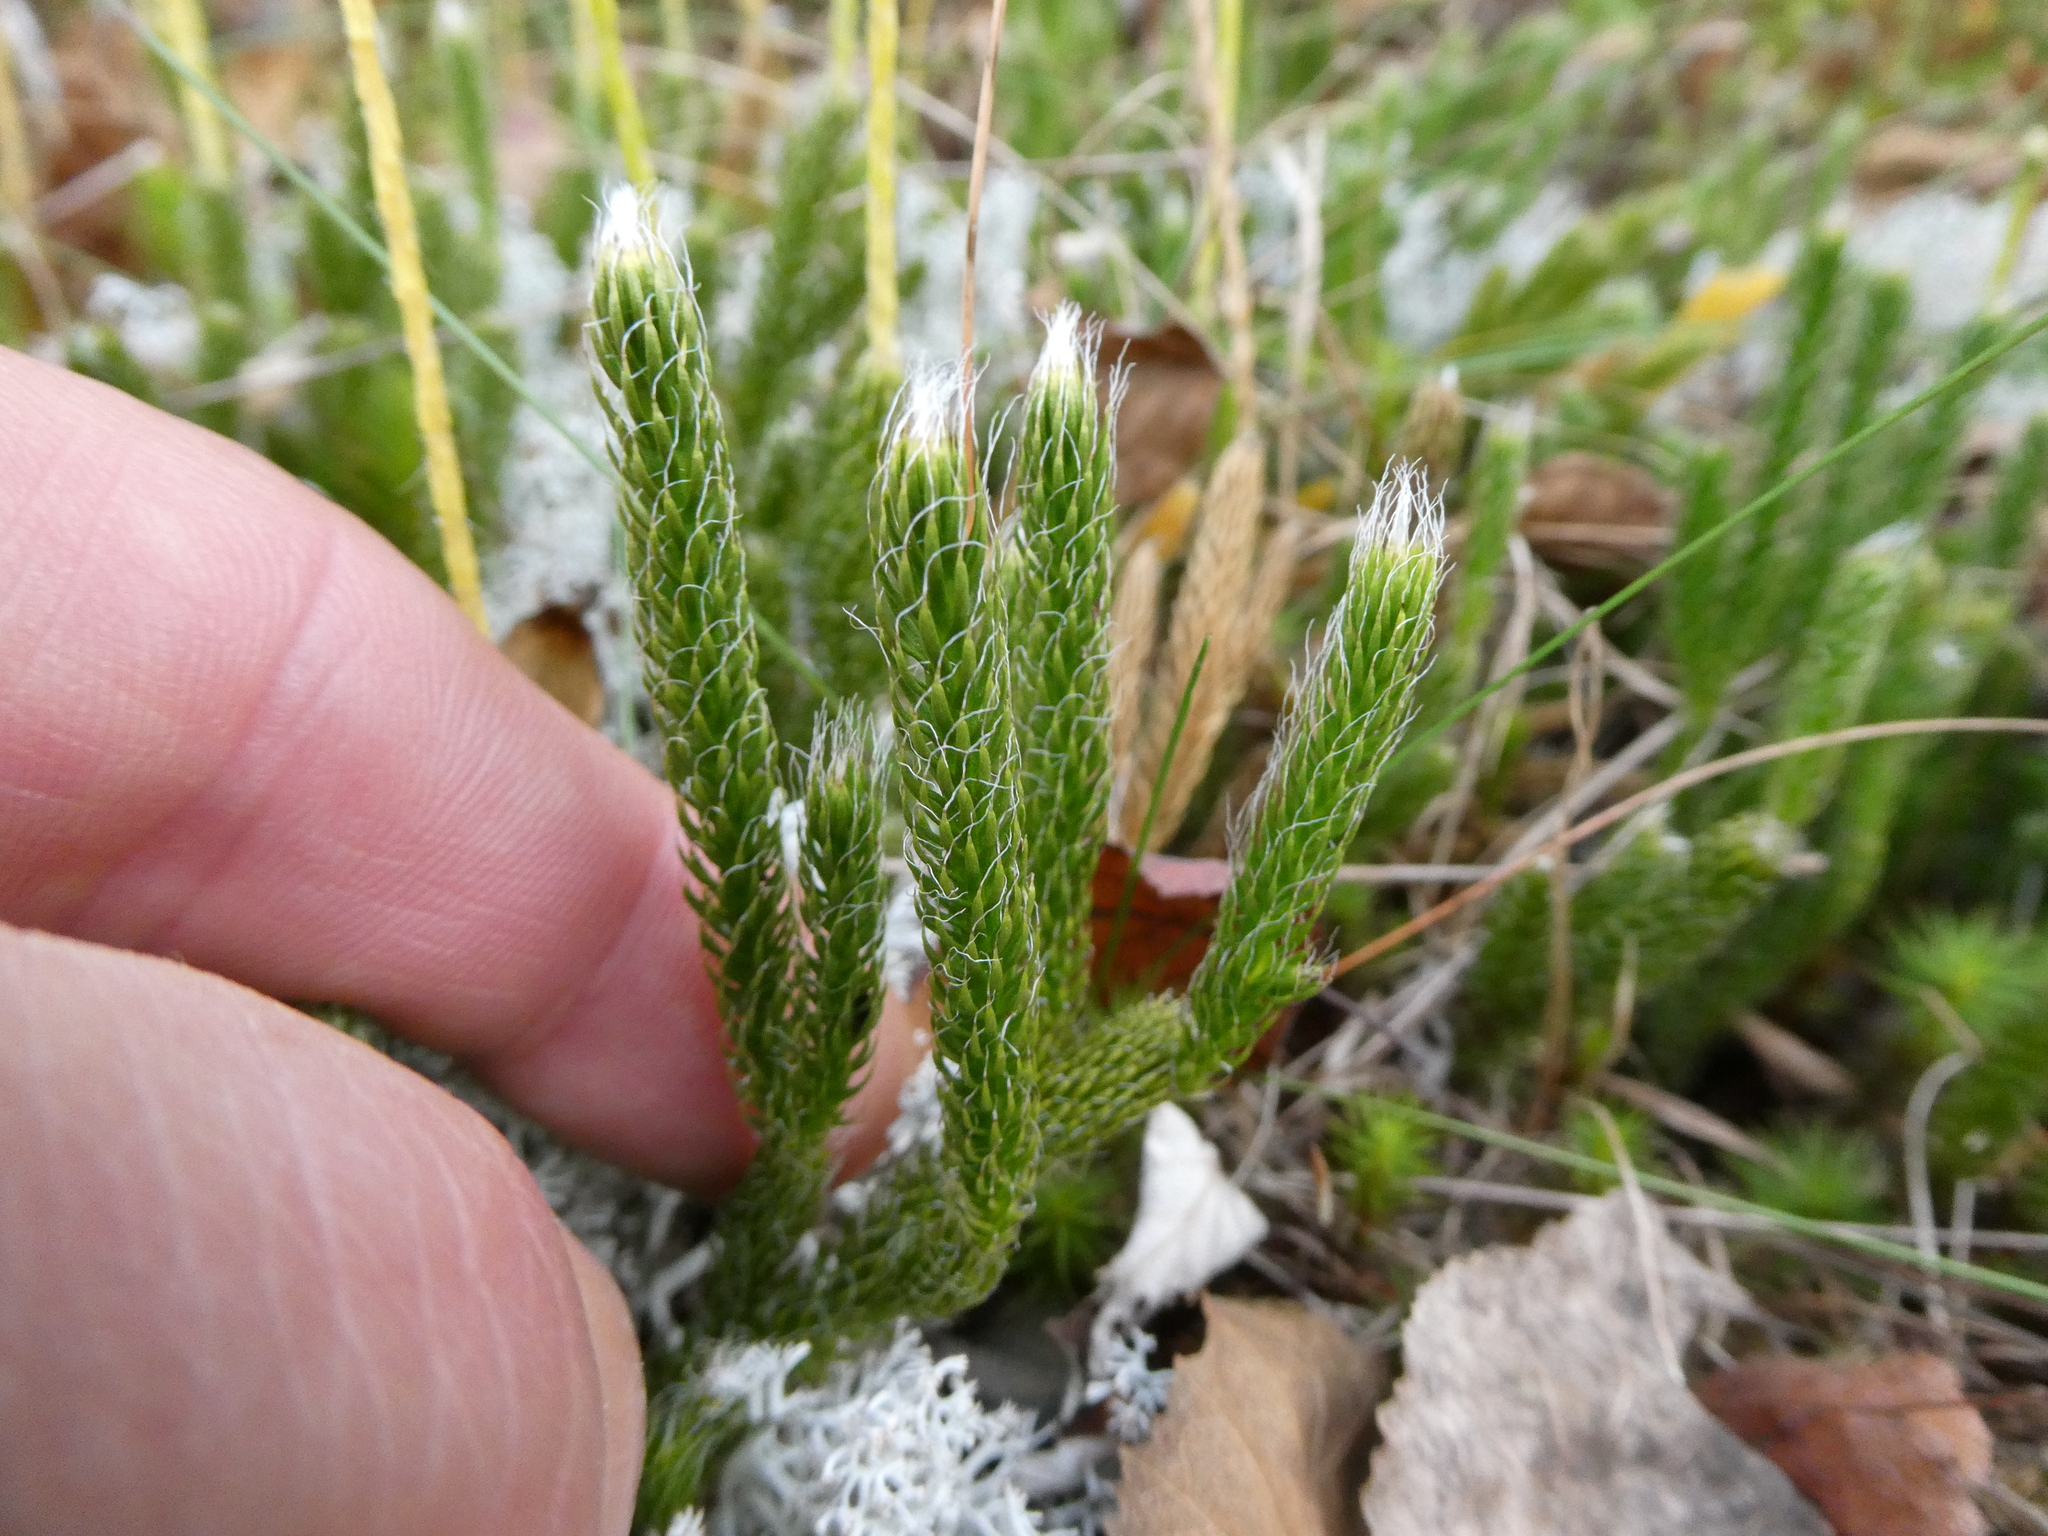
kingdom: Plantae
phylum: Tracheophyta
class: Lycopodiopsida
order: Lycopodiales
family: Lycopodiaceae
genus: Lycopodium
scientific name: Lycopodium lagopus
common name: One-cone clubmoss
